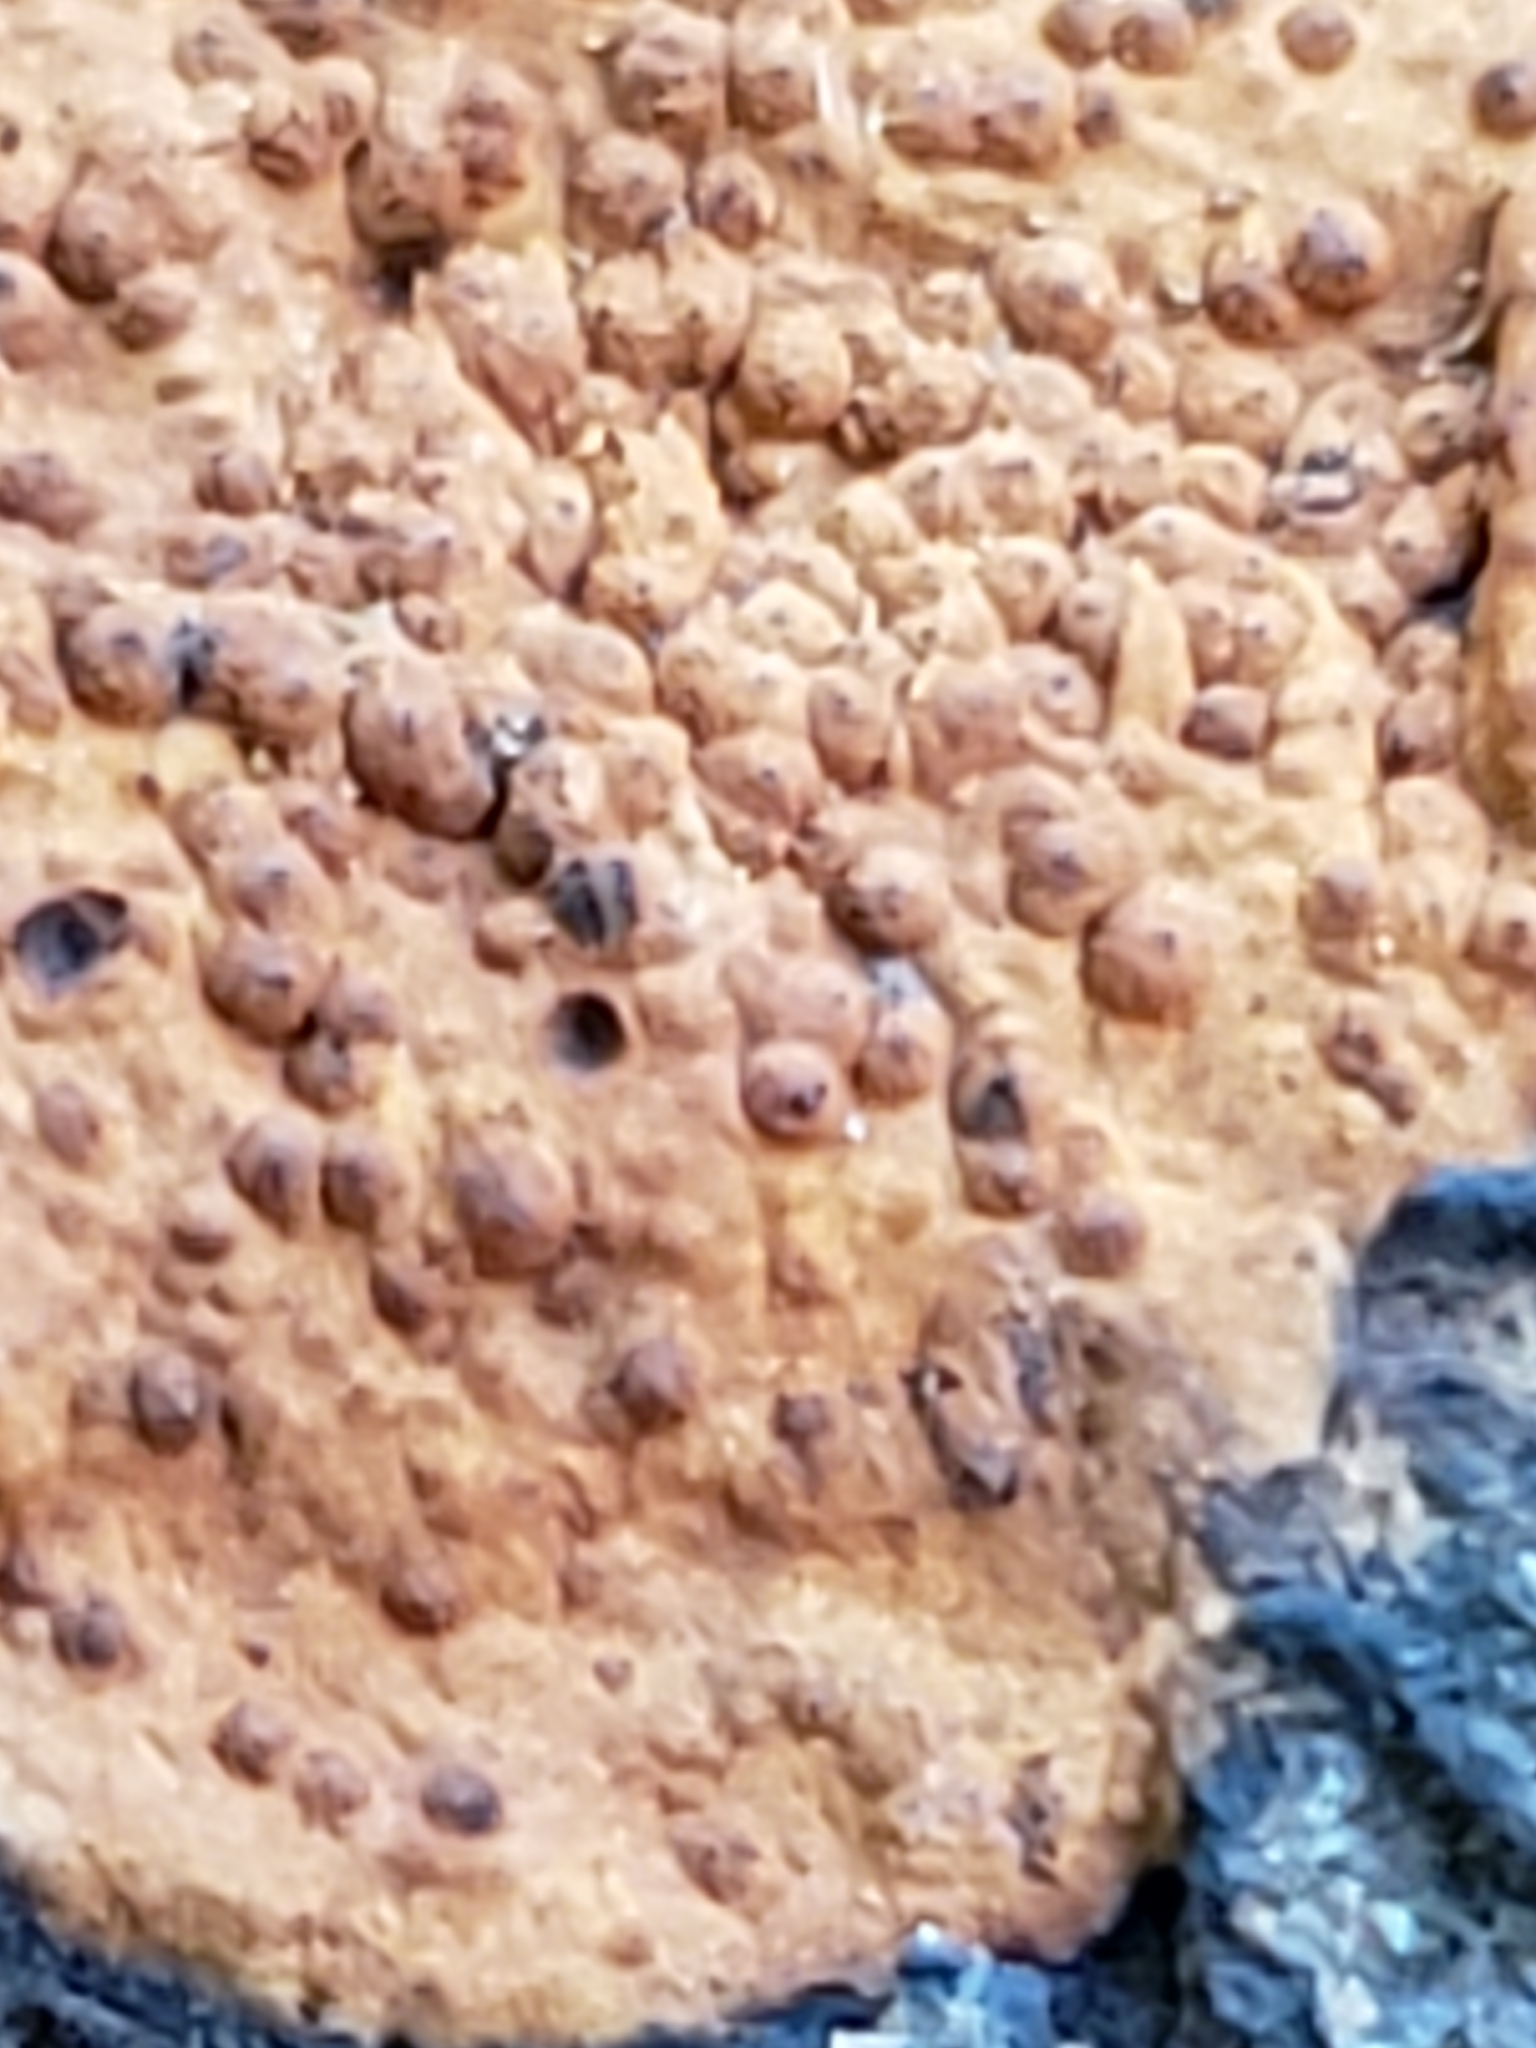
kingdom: Fungi
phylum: Ascomycota
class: Sordariomycetes
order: Xylariales
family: Hypoxylaceae
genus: Hypoxylon
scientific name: Hypoxylon rubiginosum
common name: Rusty woodwart
